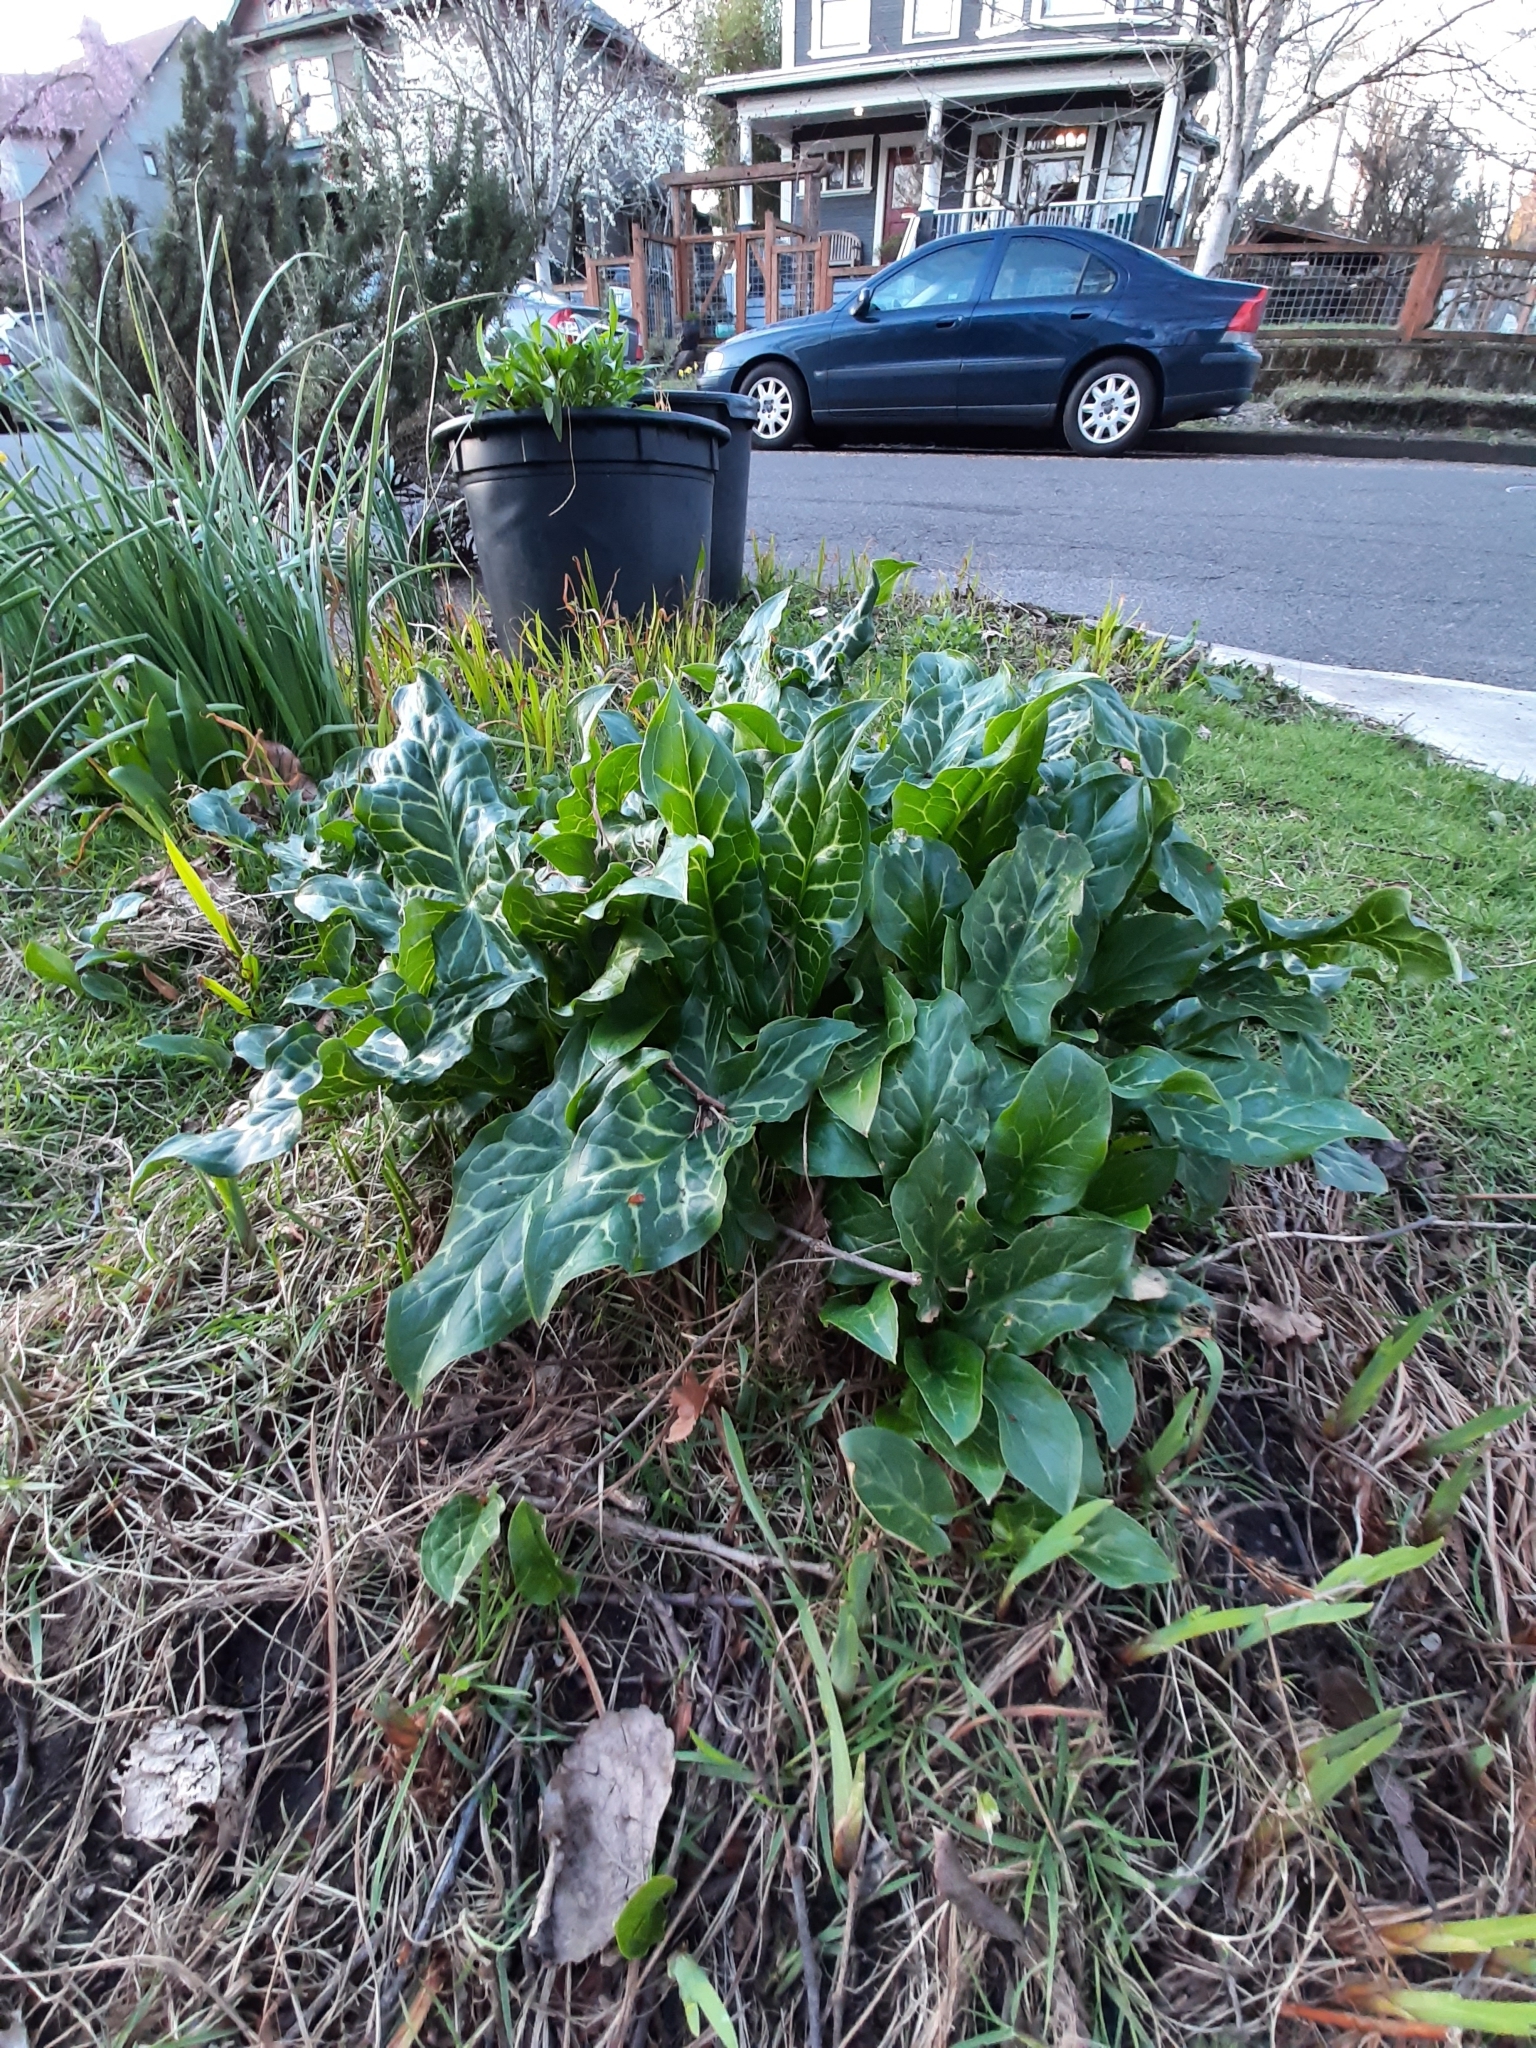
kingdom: Plantae
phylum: Tracheophyta
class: Liliopsida
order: Alismatales
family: Araceae
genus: Arum
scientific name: Arum italicum
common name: Italian lords-and-ladies
